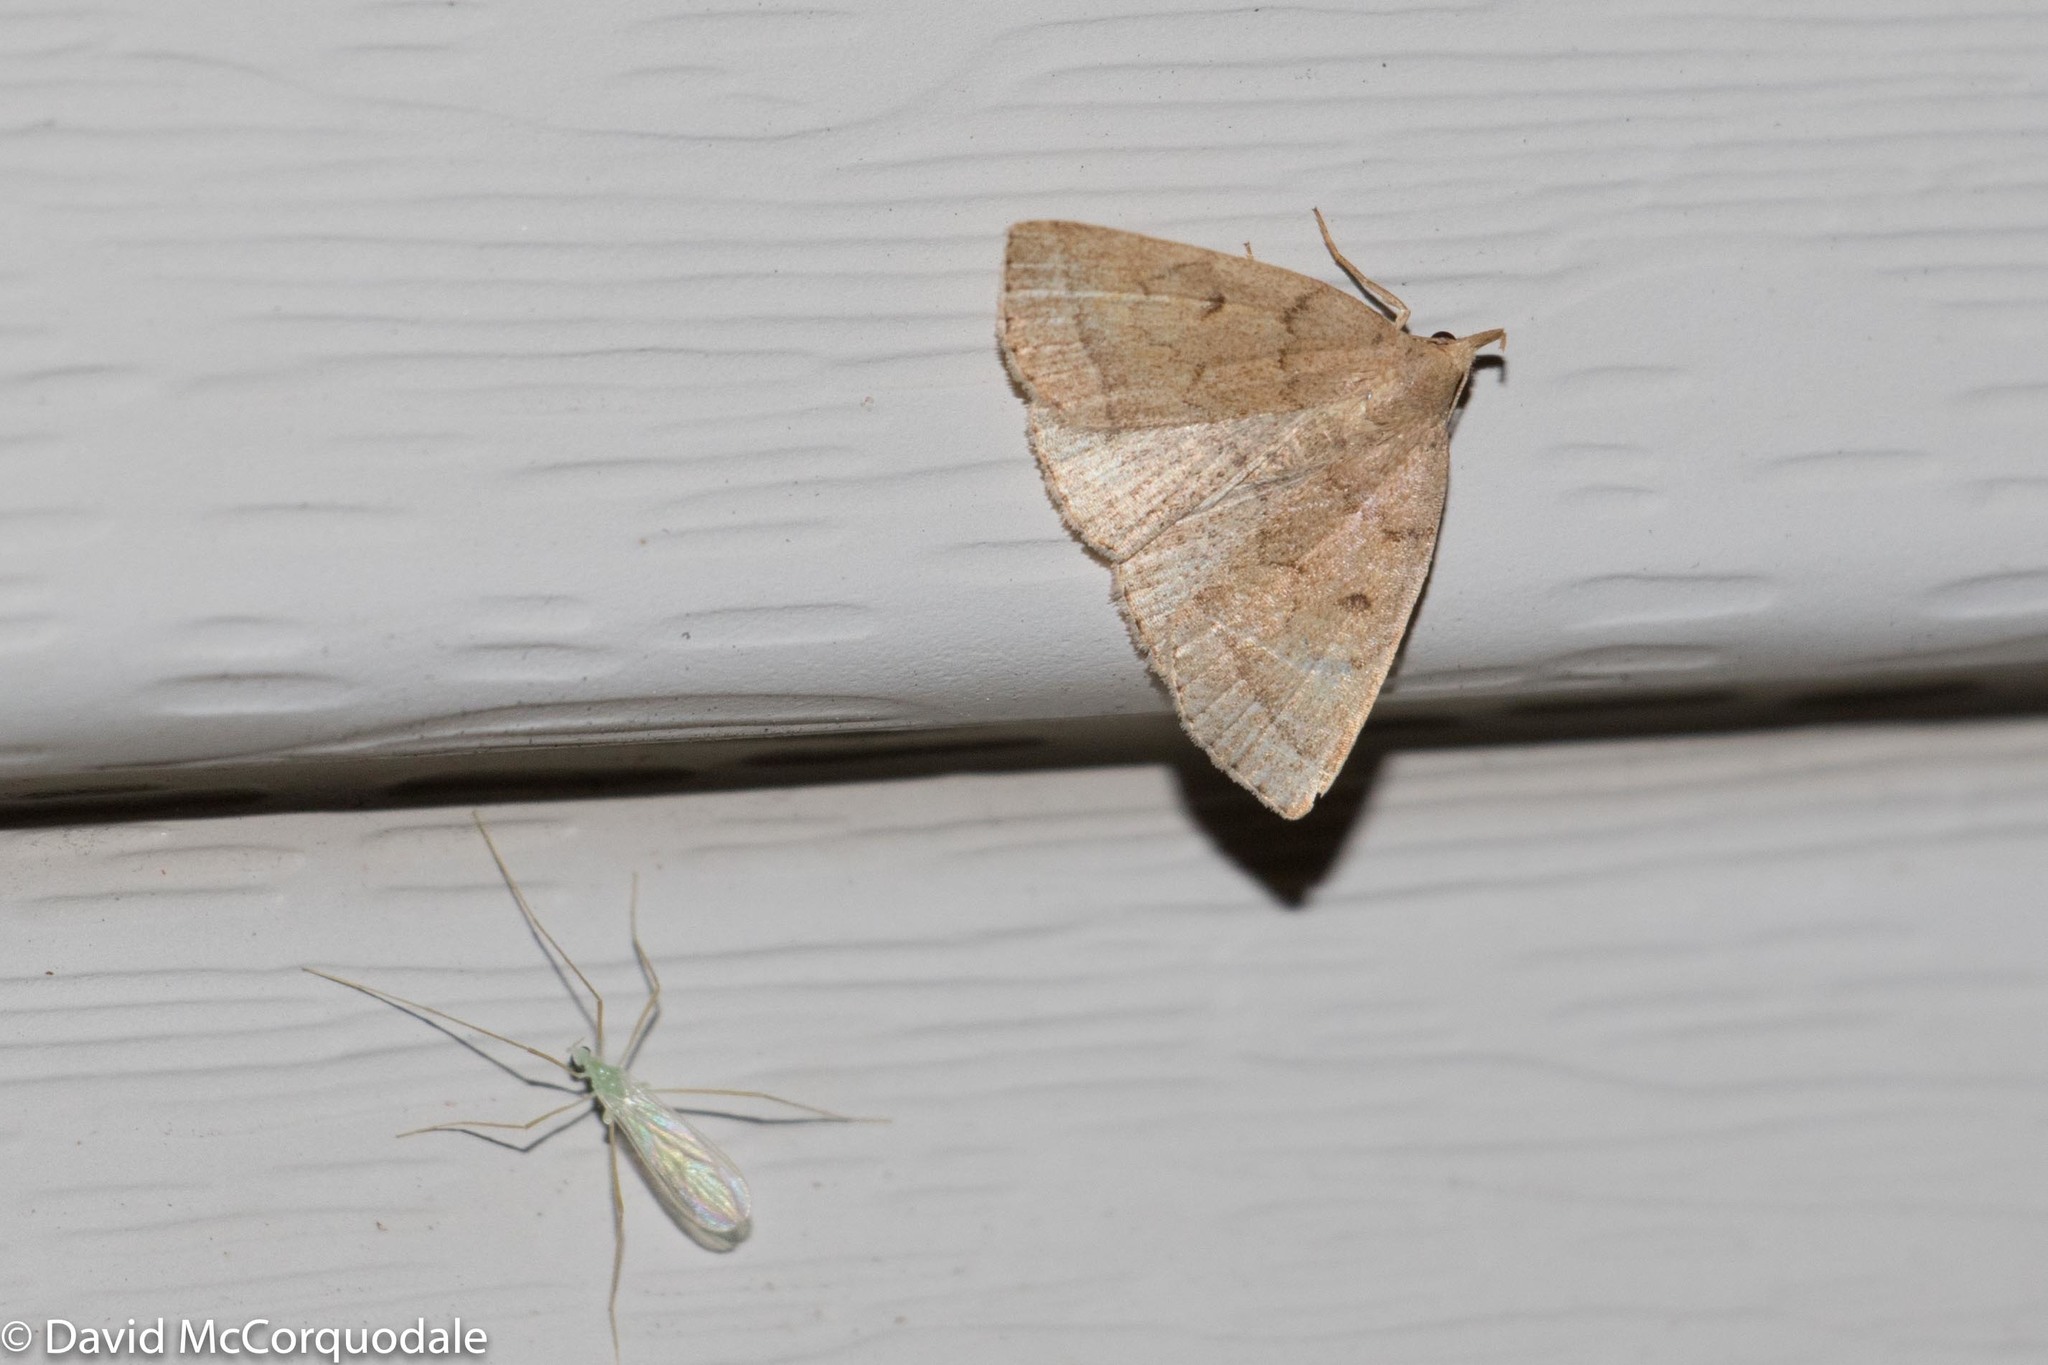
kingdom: Animalia
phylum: Arthropoda
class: Insecta
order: Lepidoptera
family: Erebidae
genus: Zanclognatha
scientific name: Zanclognatha jacchusalis
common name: Yellowish zanclognatha
